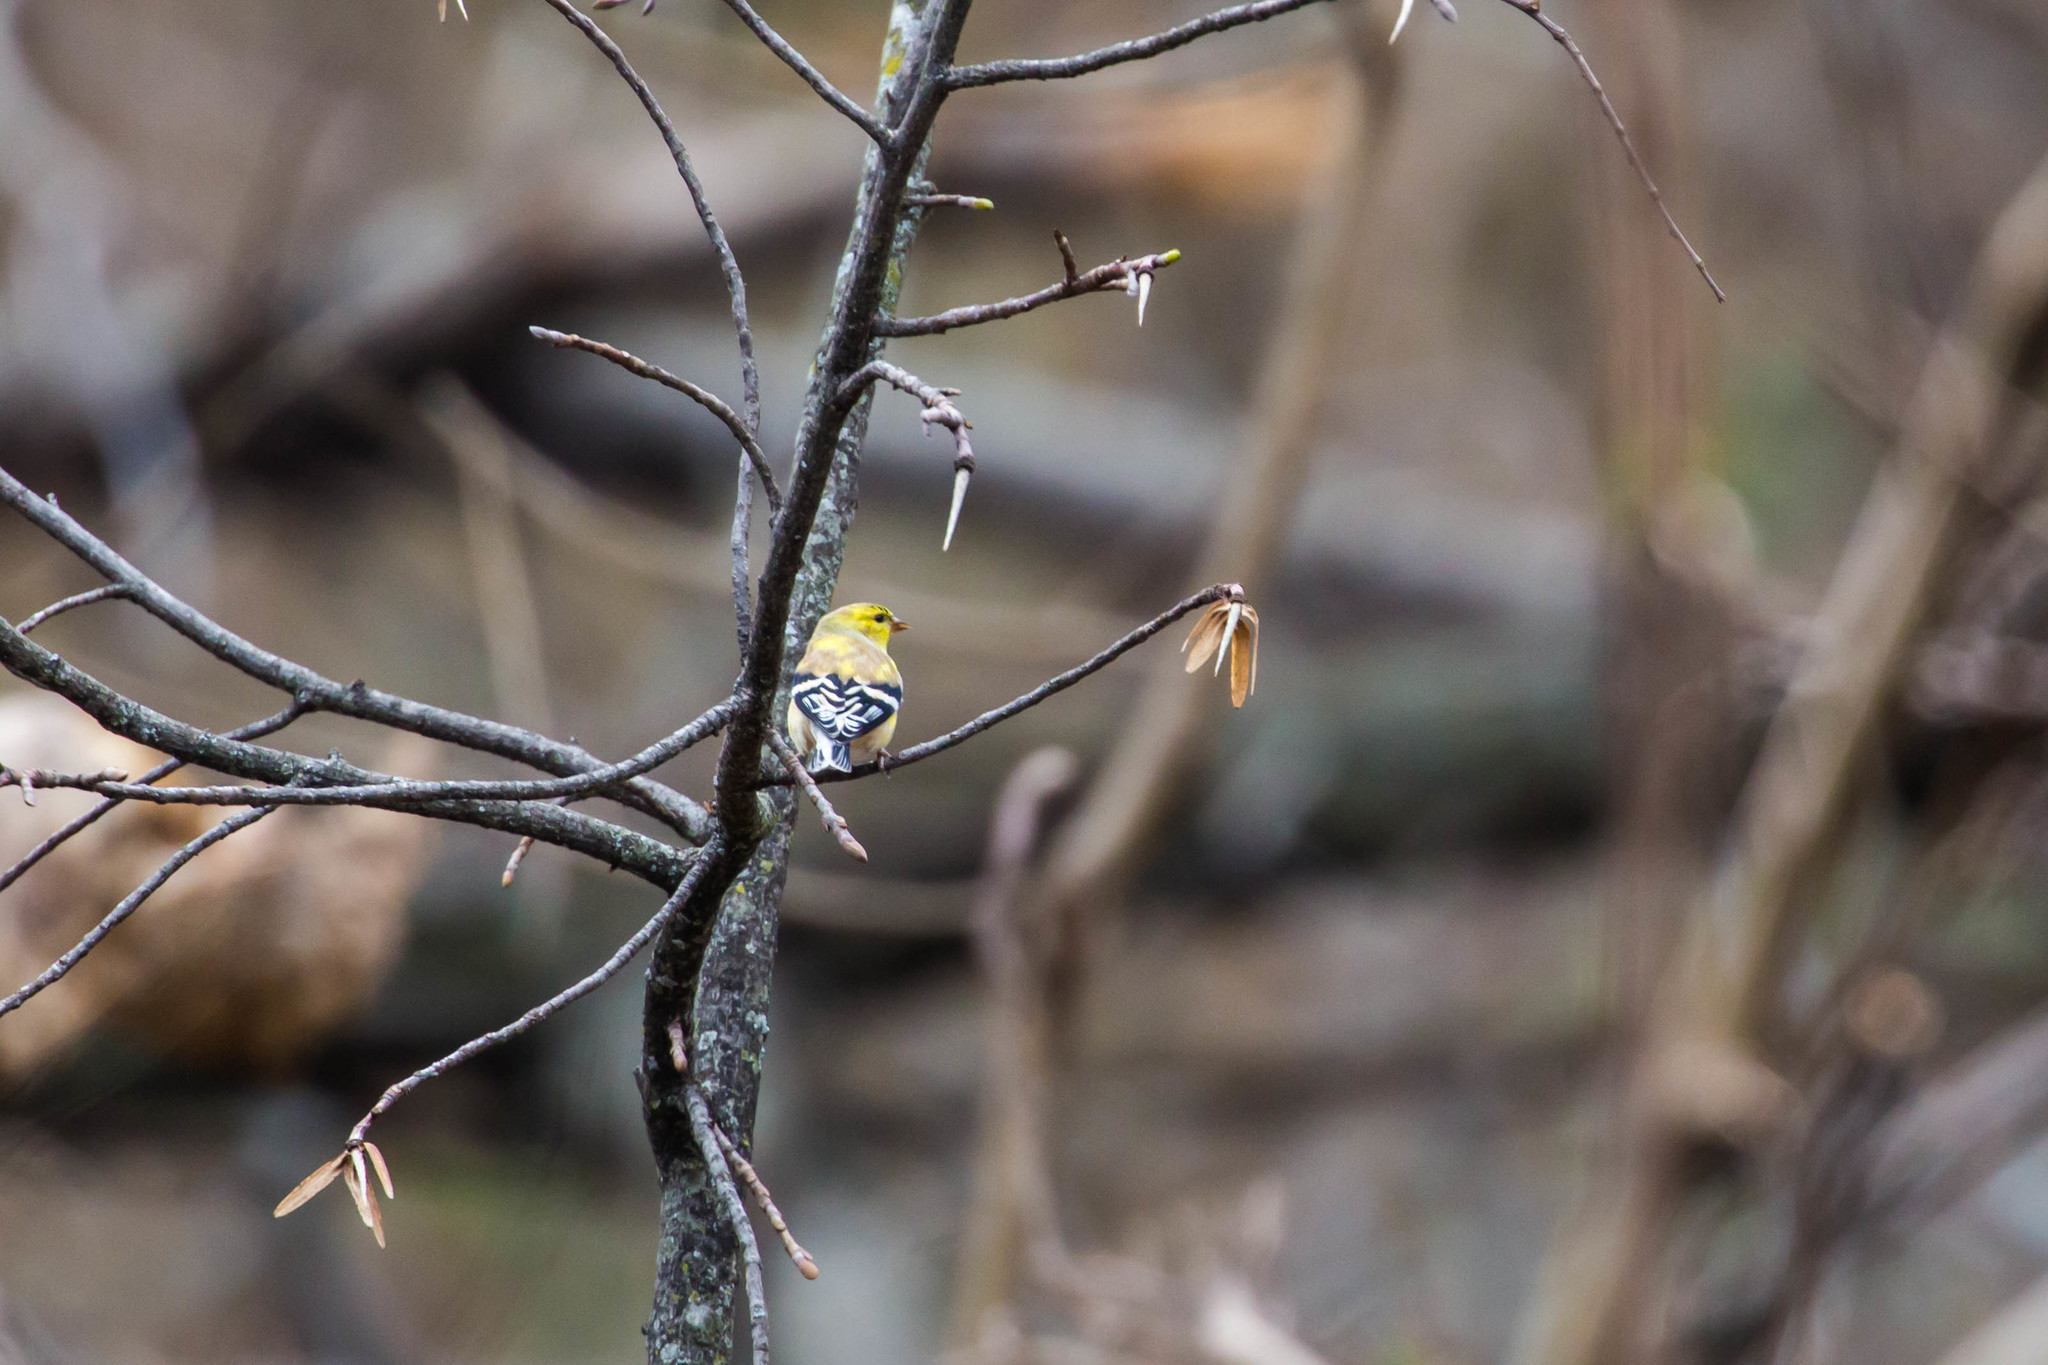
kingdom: Animalia
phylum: Chordata
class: Aves
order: Passeriformes
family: Fringillidae
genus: Spinus
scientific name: Spinus tristis
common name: American goldfinch
